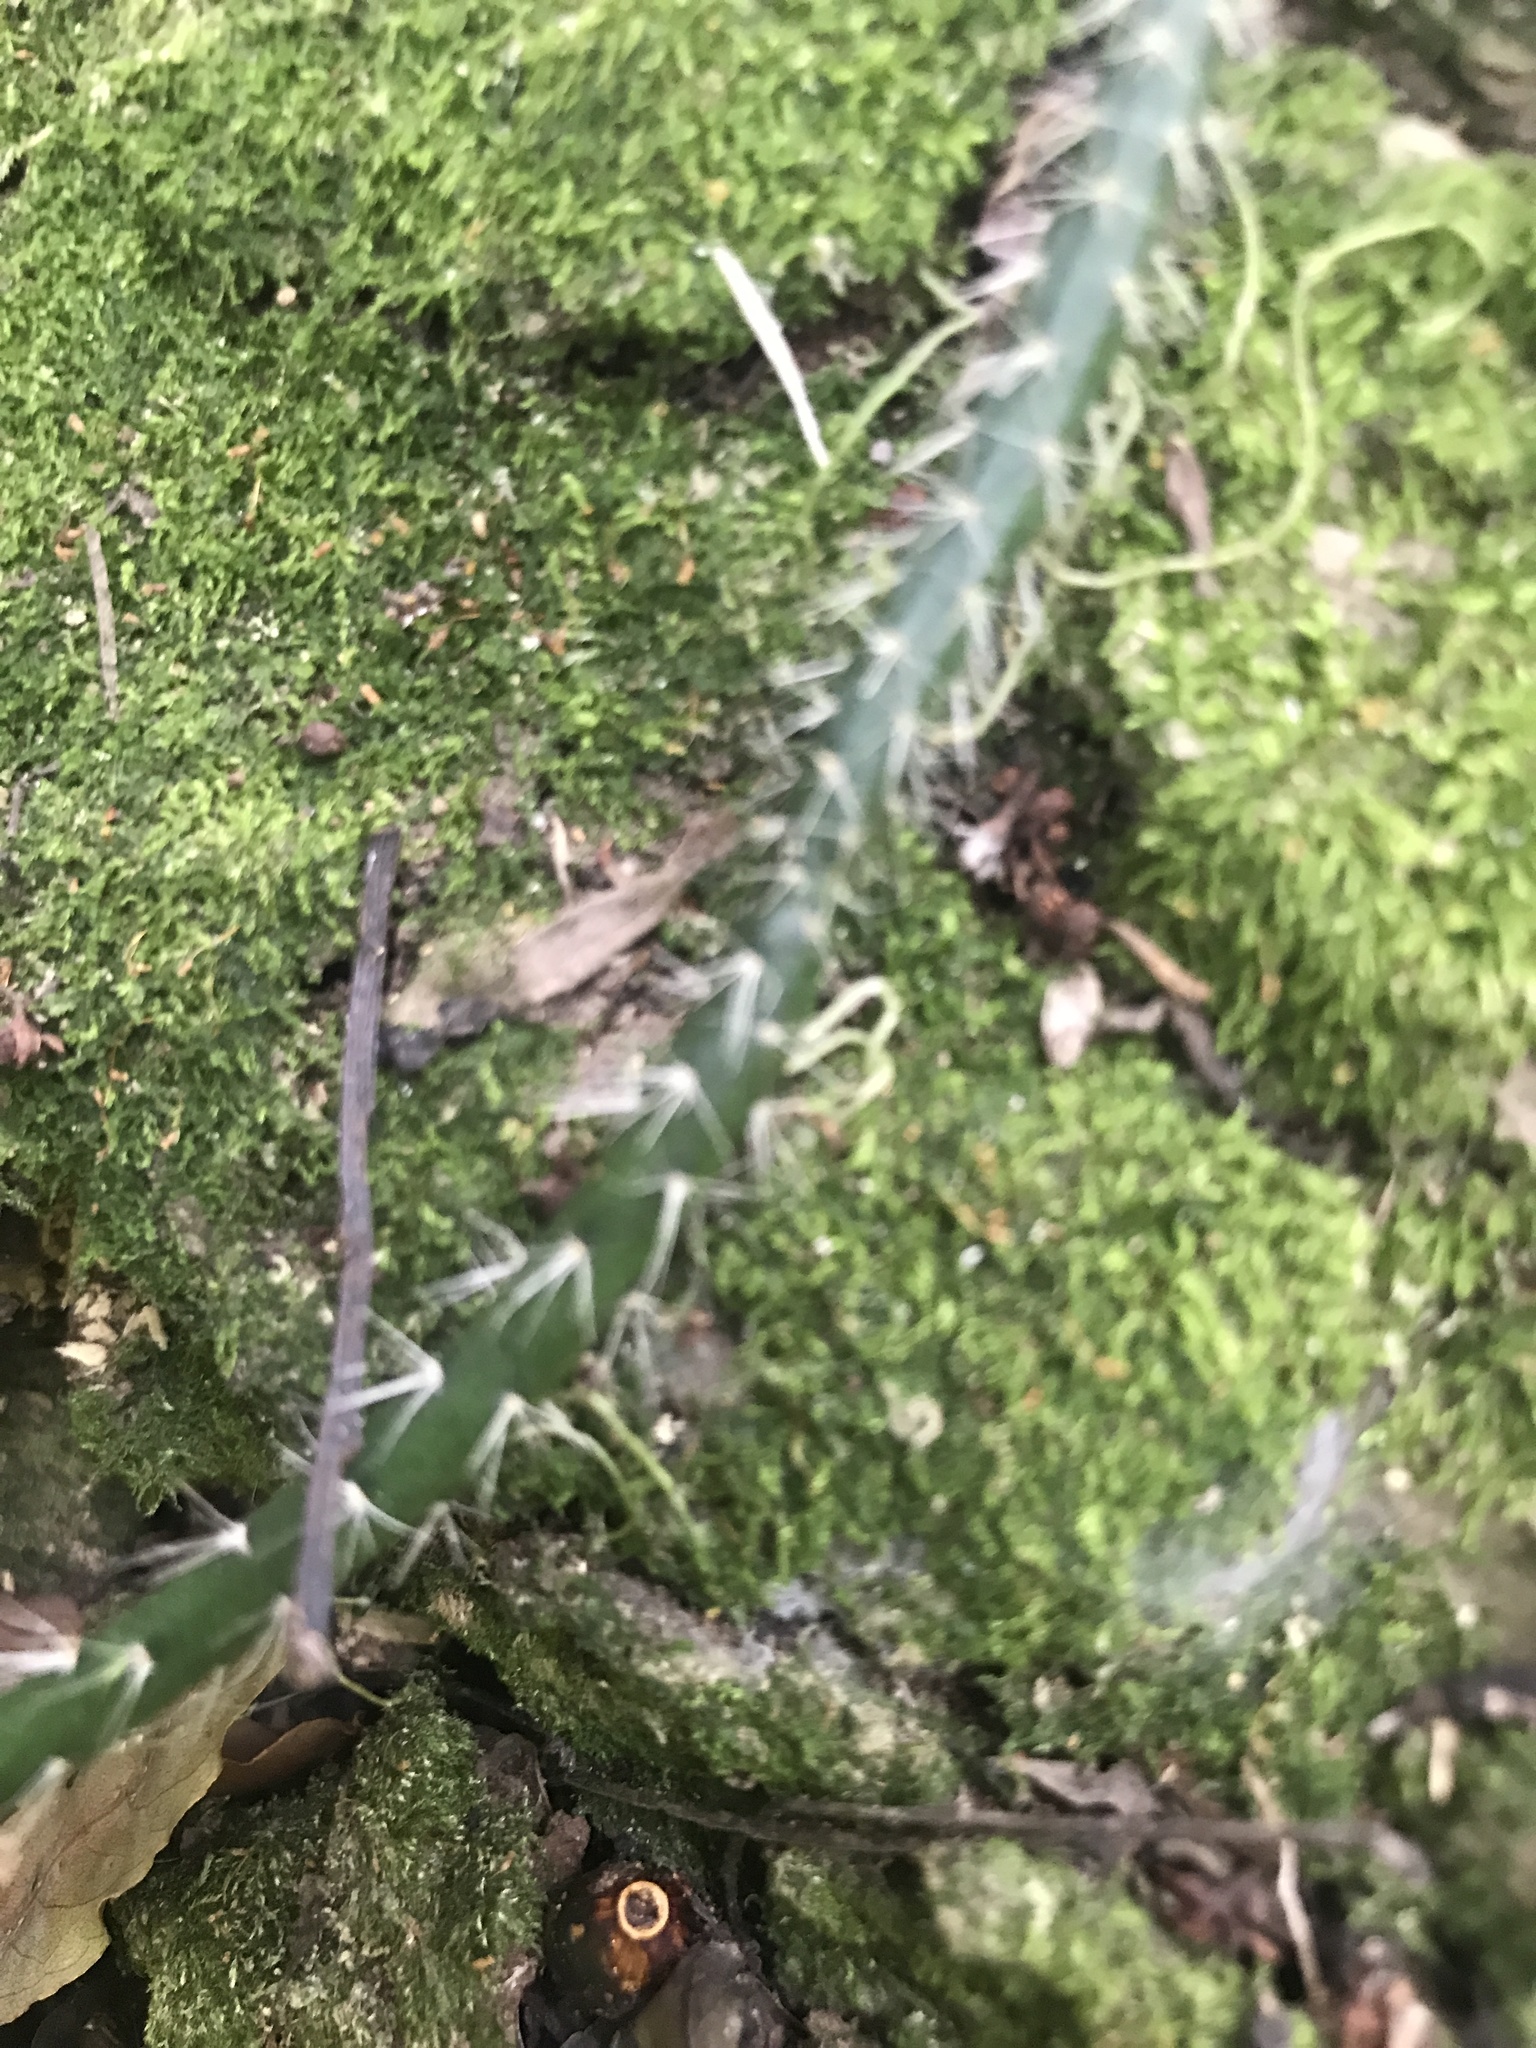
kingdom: Plantae
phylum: Tracheophyta
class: Magnoliopsida
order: Caryophyllales
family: Cactaceae
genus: Lepismium
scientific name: Lepismium lumbricoides
